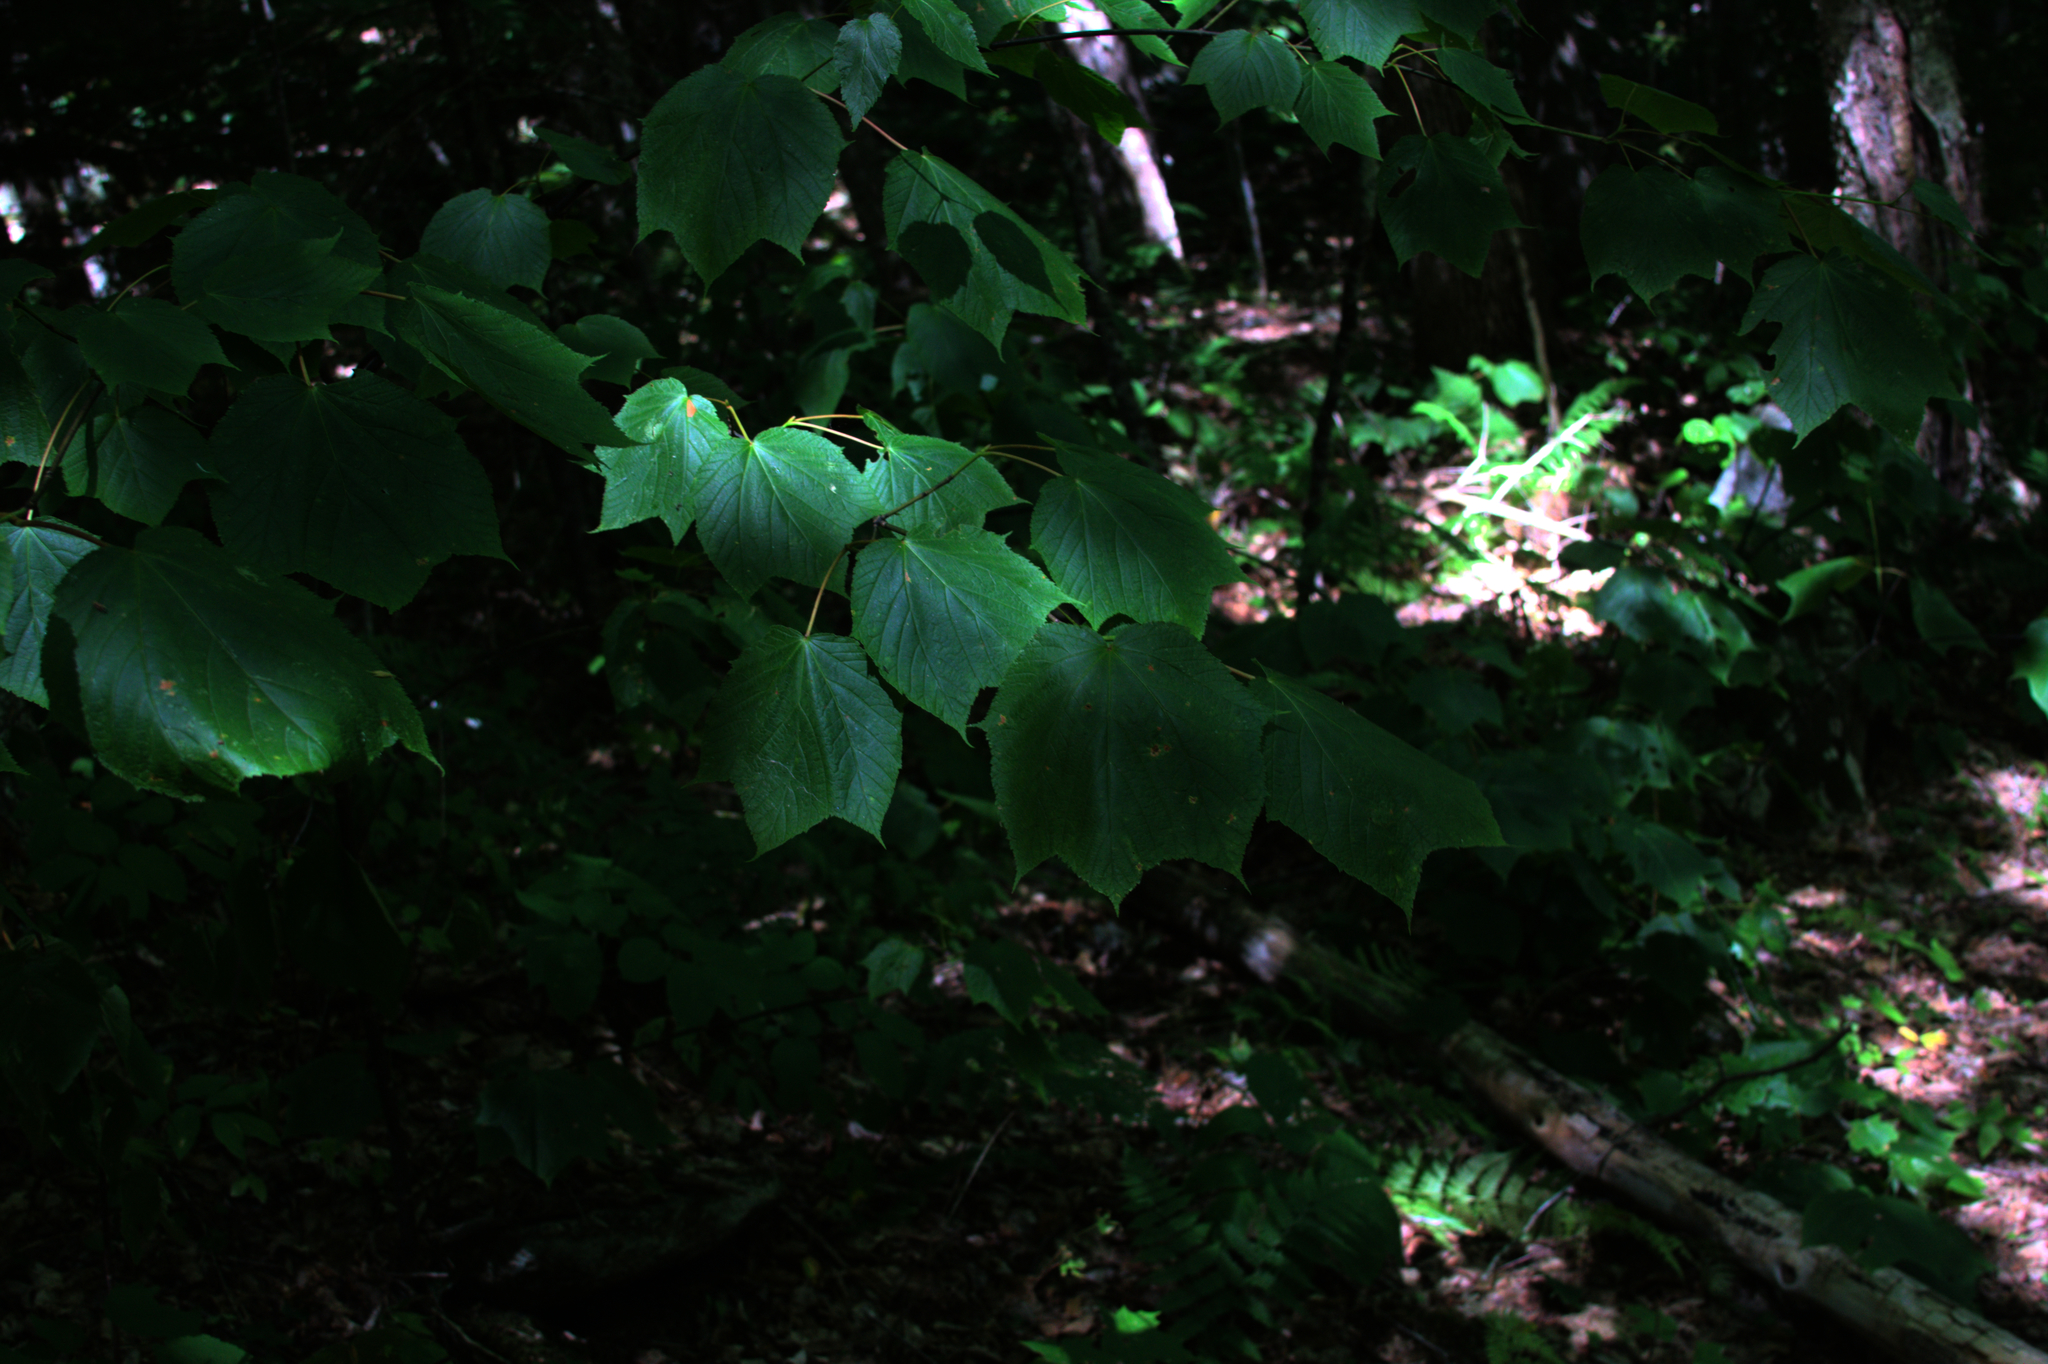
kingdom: Plantae
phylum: Tracheophyta
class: Magnoliopsida
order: Sapindales
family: Sapindaceae
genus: Acer
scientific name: Acer pensylvanicum
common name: Moosewood
